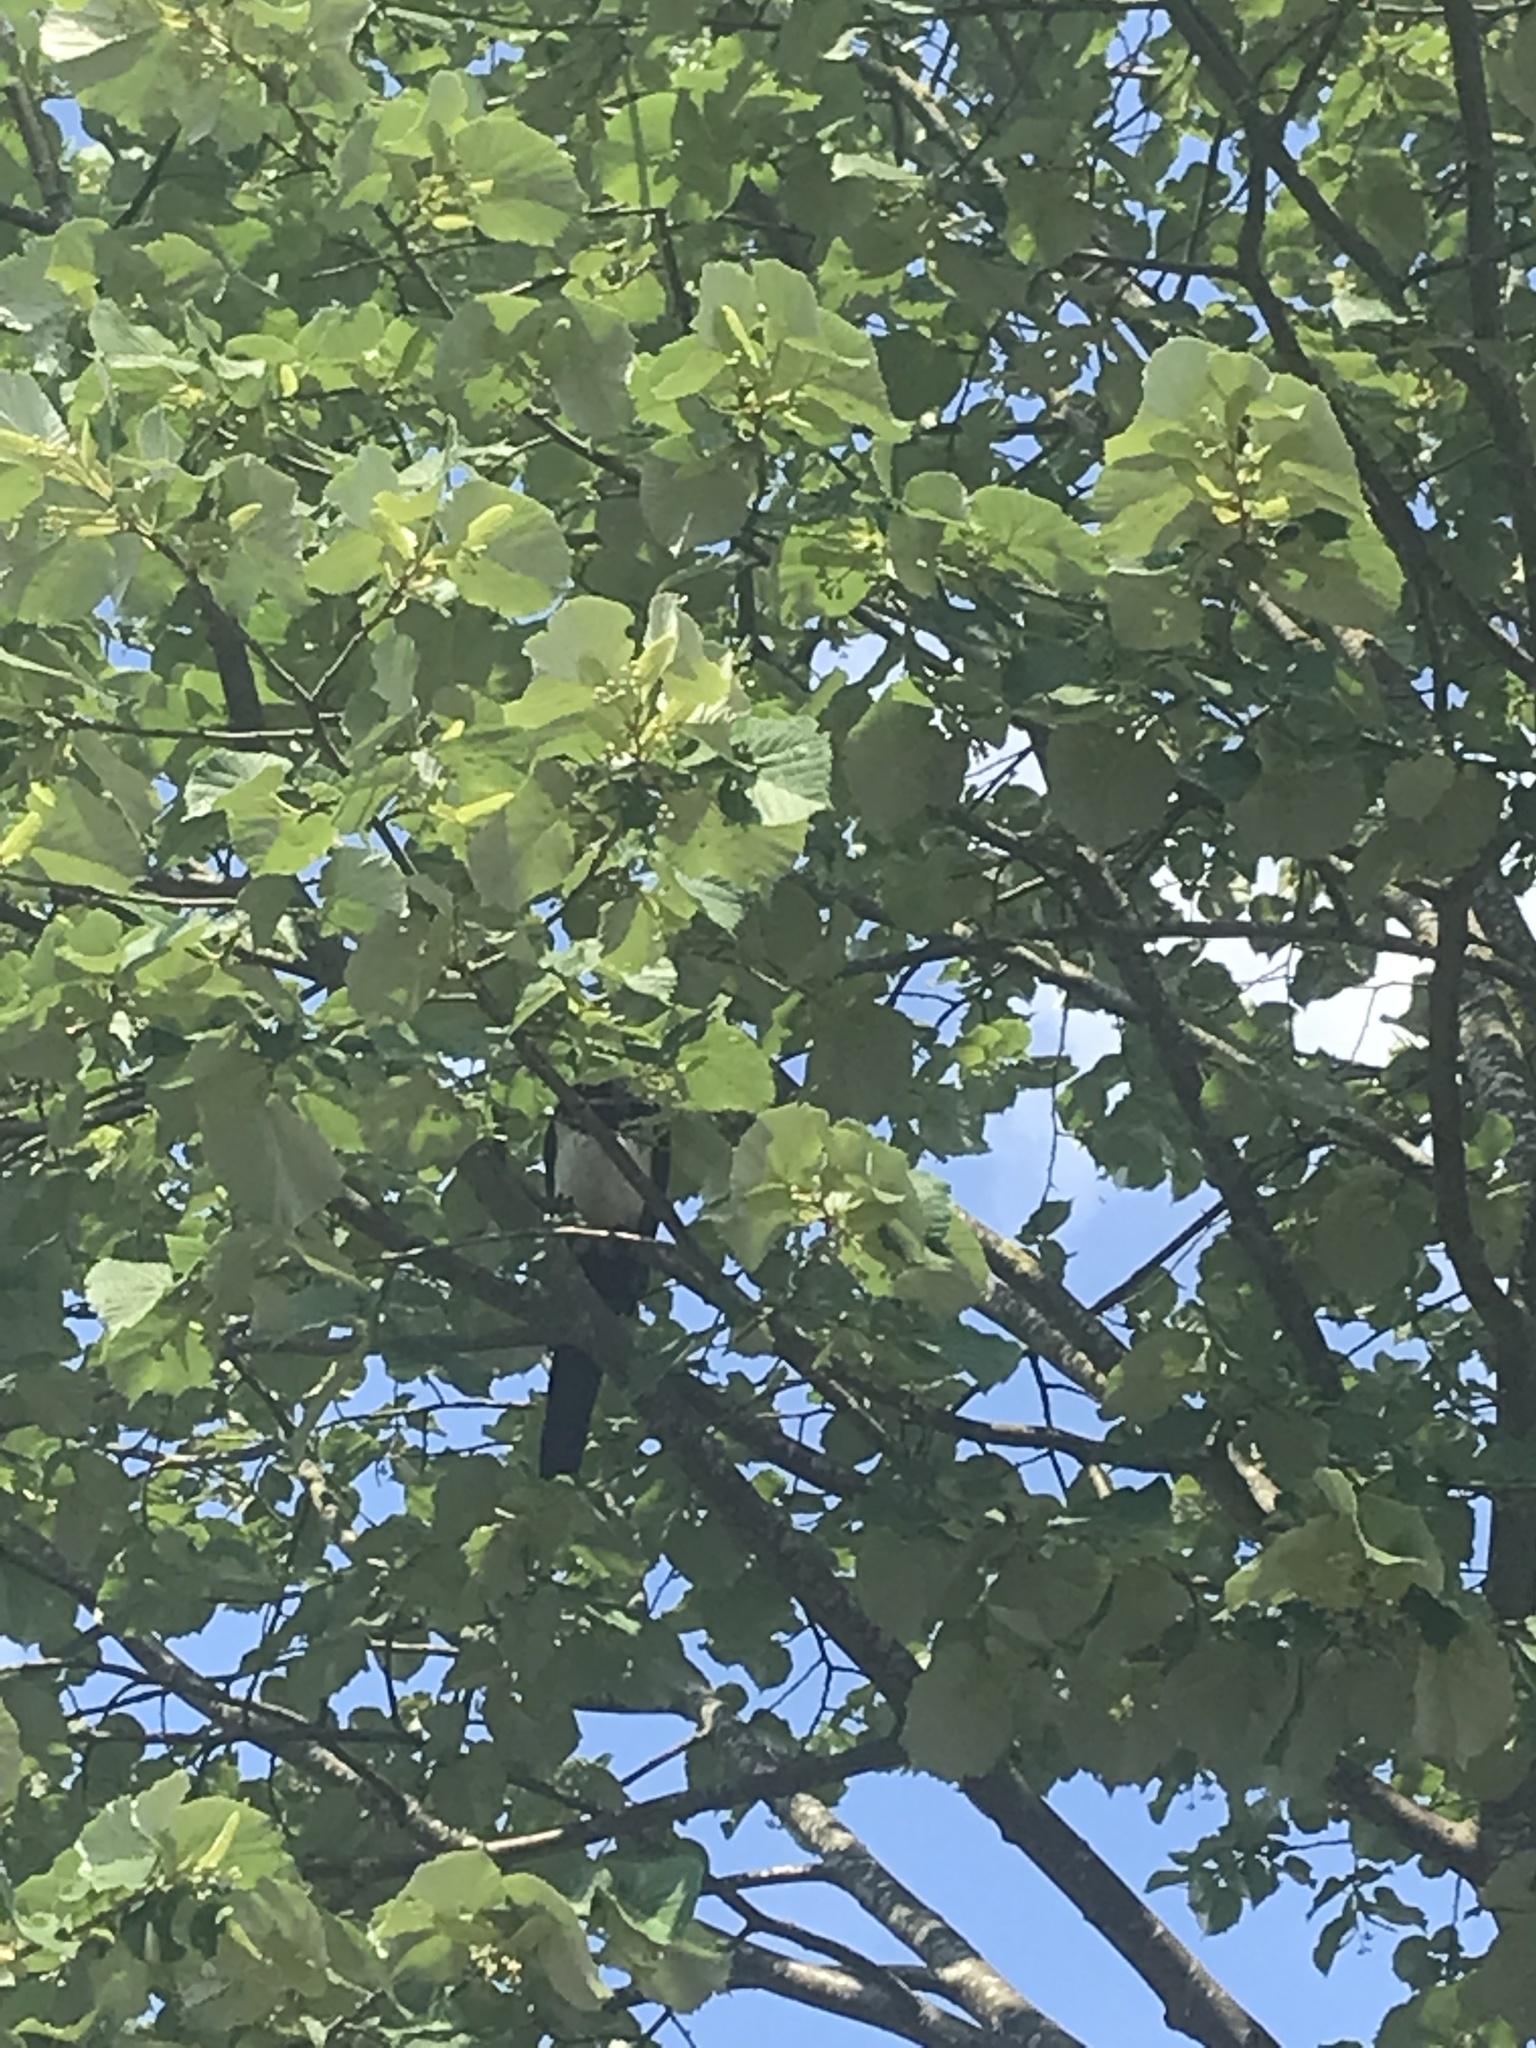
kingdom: Animalia
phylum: Chordata
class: Aves
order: Passeriformes
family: Corvidae
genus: Pica
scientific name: Pica pica
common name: Eurasian magpie
